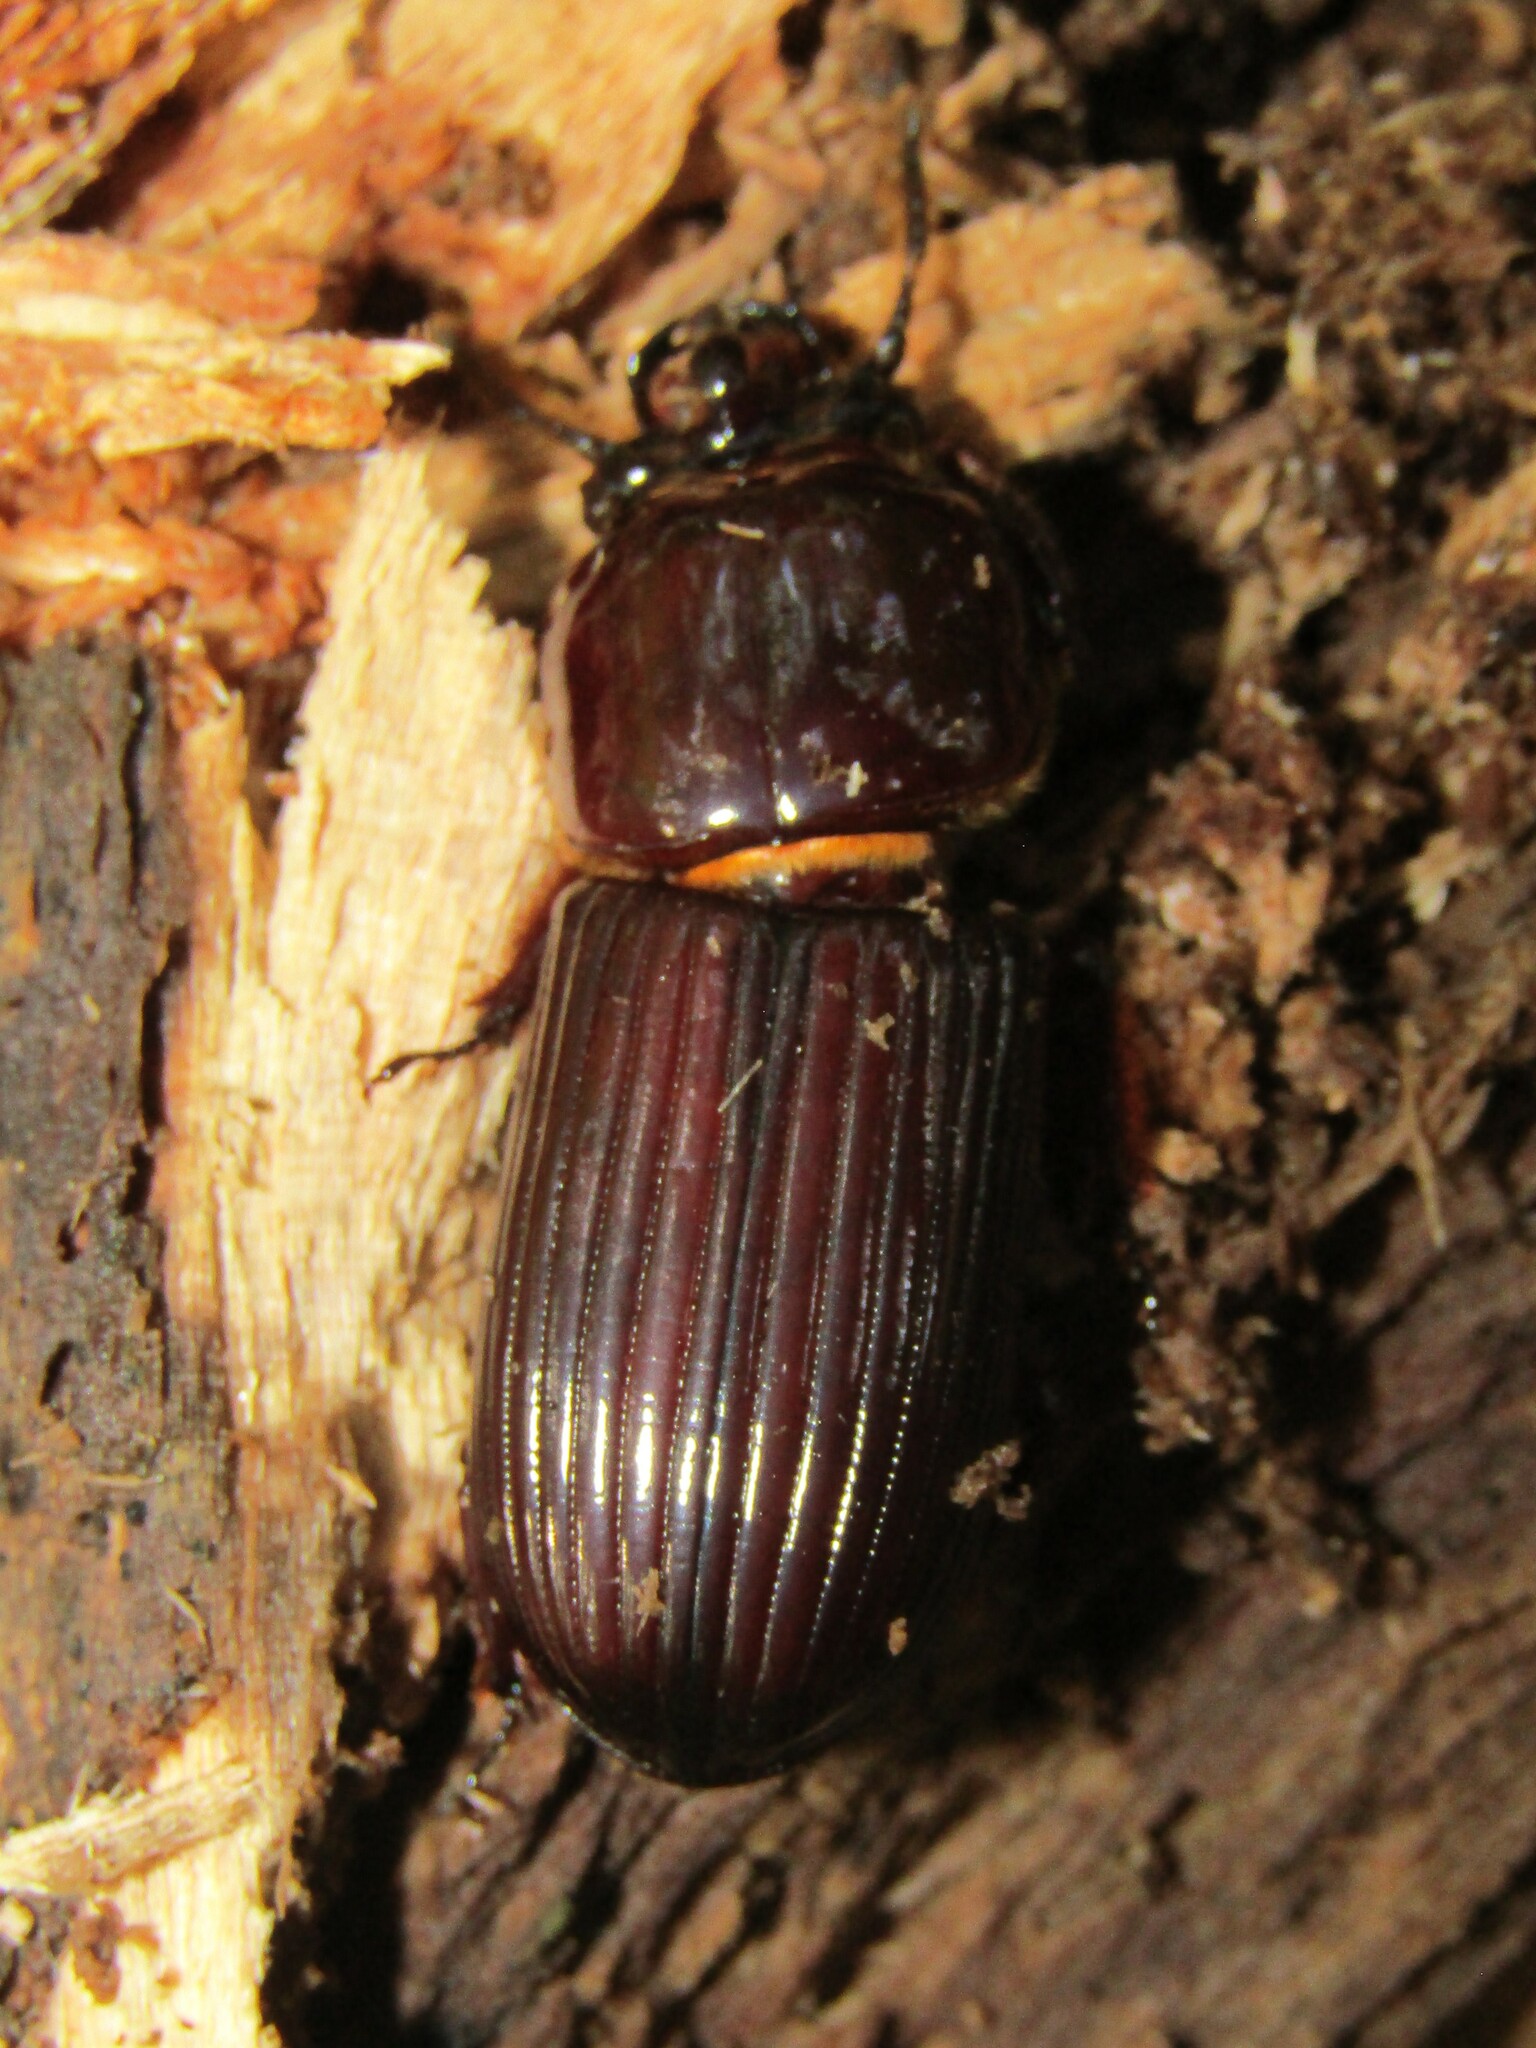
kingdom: Animalia
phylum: Arthropoda
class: Insecta
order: Coleoptera
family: Passalidae
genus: Odontotaenius
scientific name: Odontotaenius disjunctus
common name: Patent leather beetle
